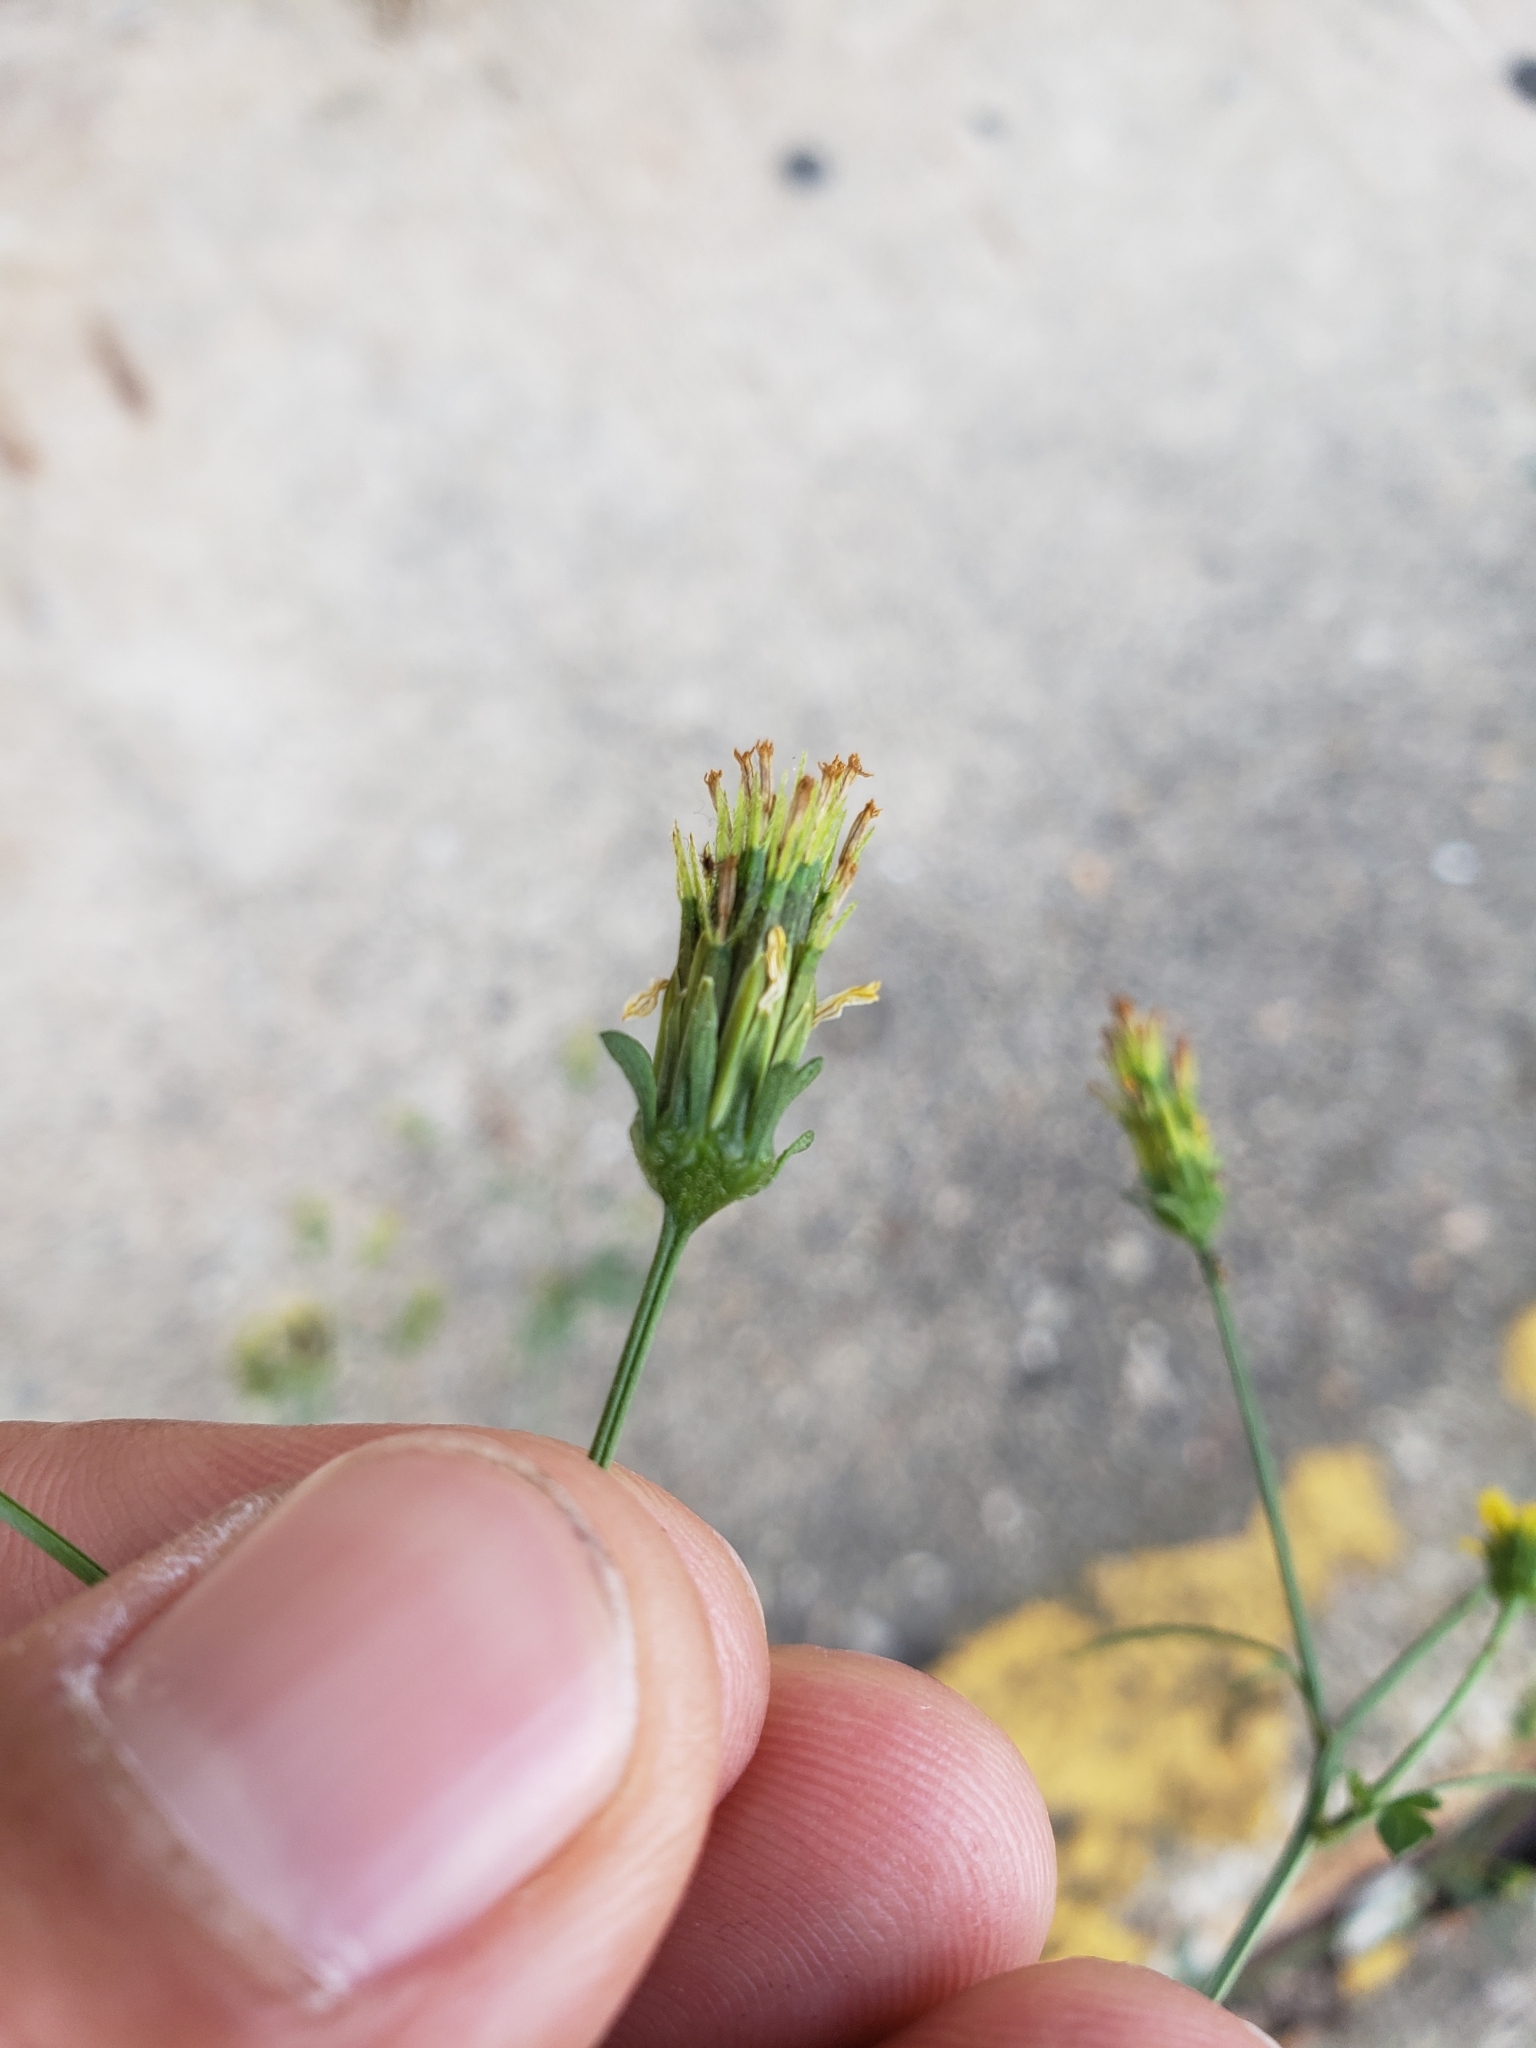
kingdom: Plantae
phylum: Tracheophyta
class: Magnoliopsida
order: Asterales
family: Asteraceae
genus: Bidens
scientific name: Bidens bipinnata
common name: Spanish-needles
